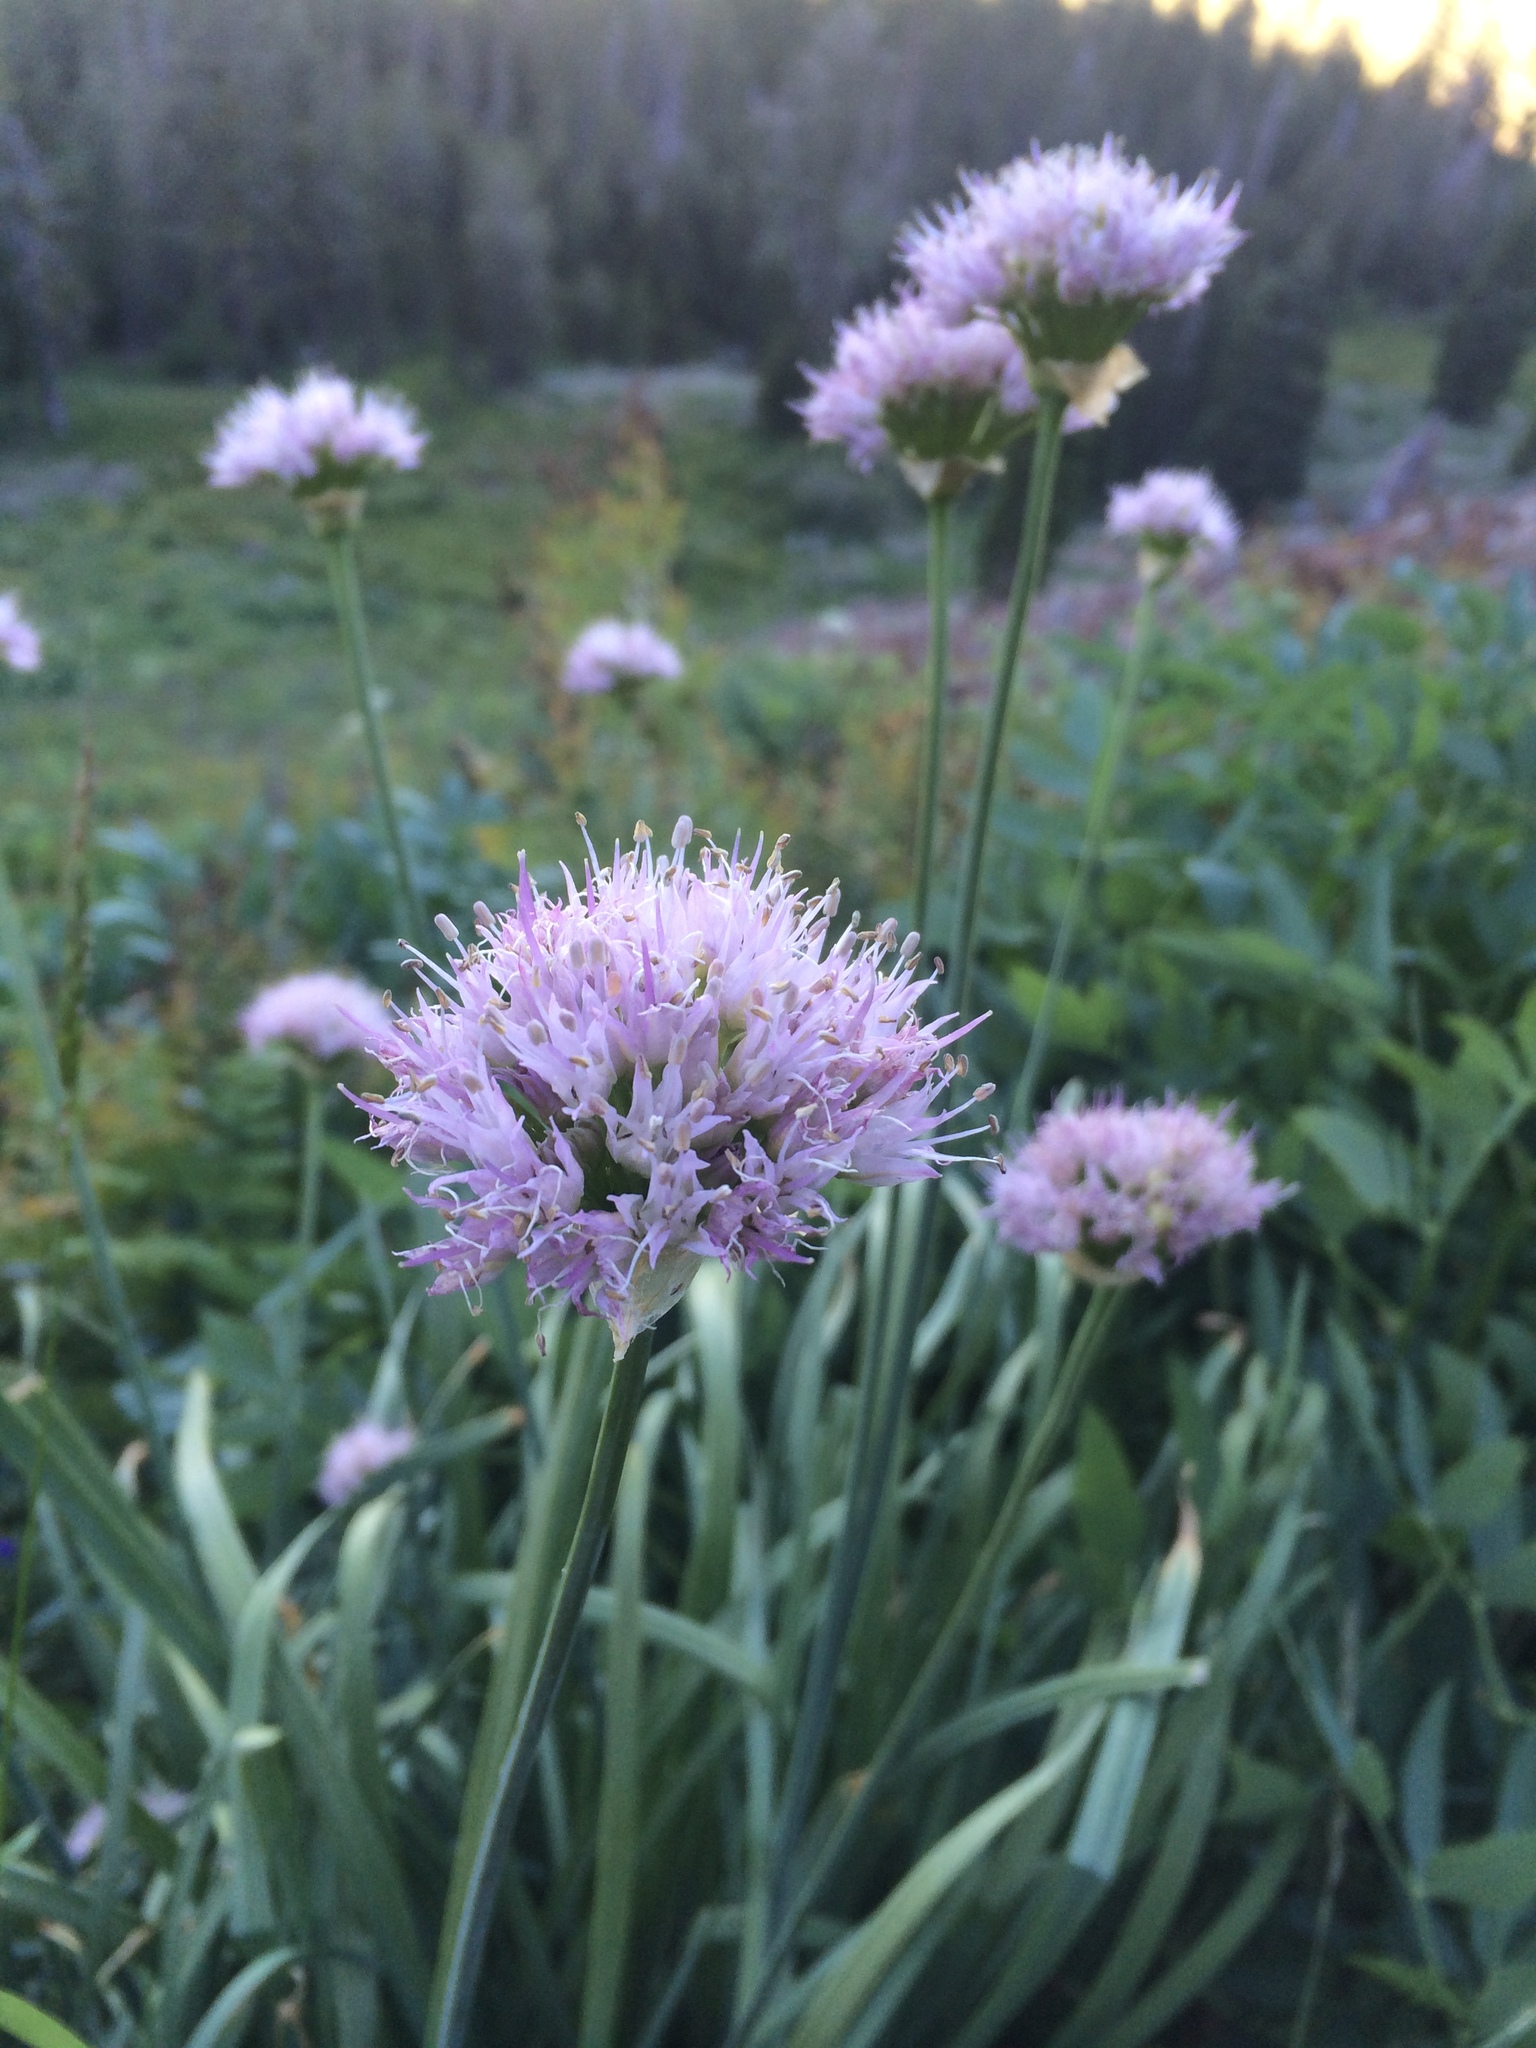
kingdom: Plantae
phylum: Tracheophyta
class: Liliopsida
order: Asparagales
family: Amaryllidaceae
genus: Allium
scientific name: Allium validum
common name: Pacific mountain onion
